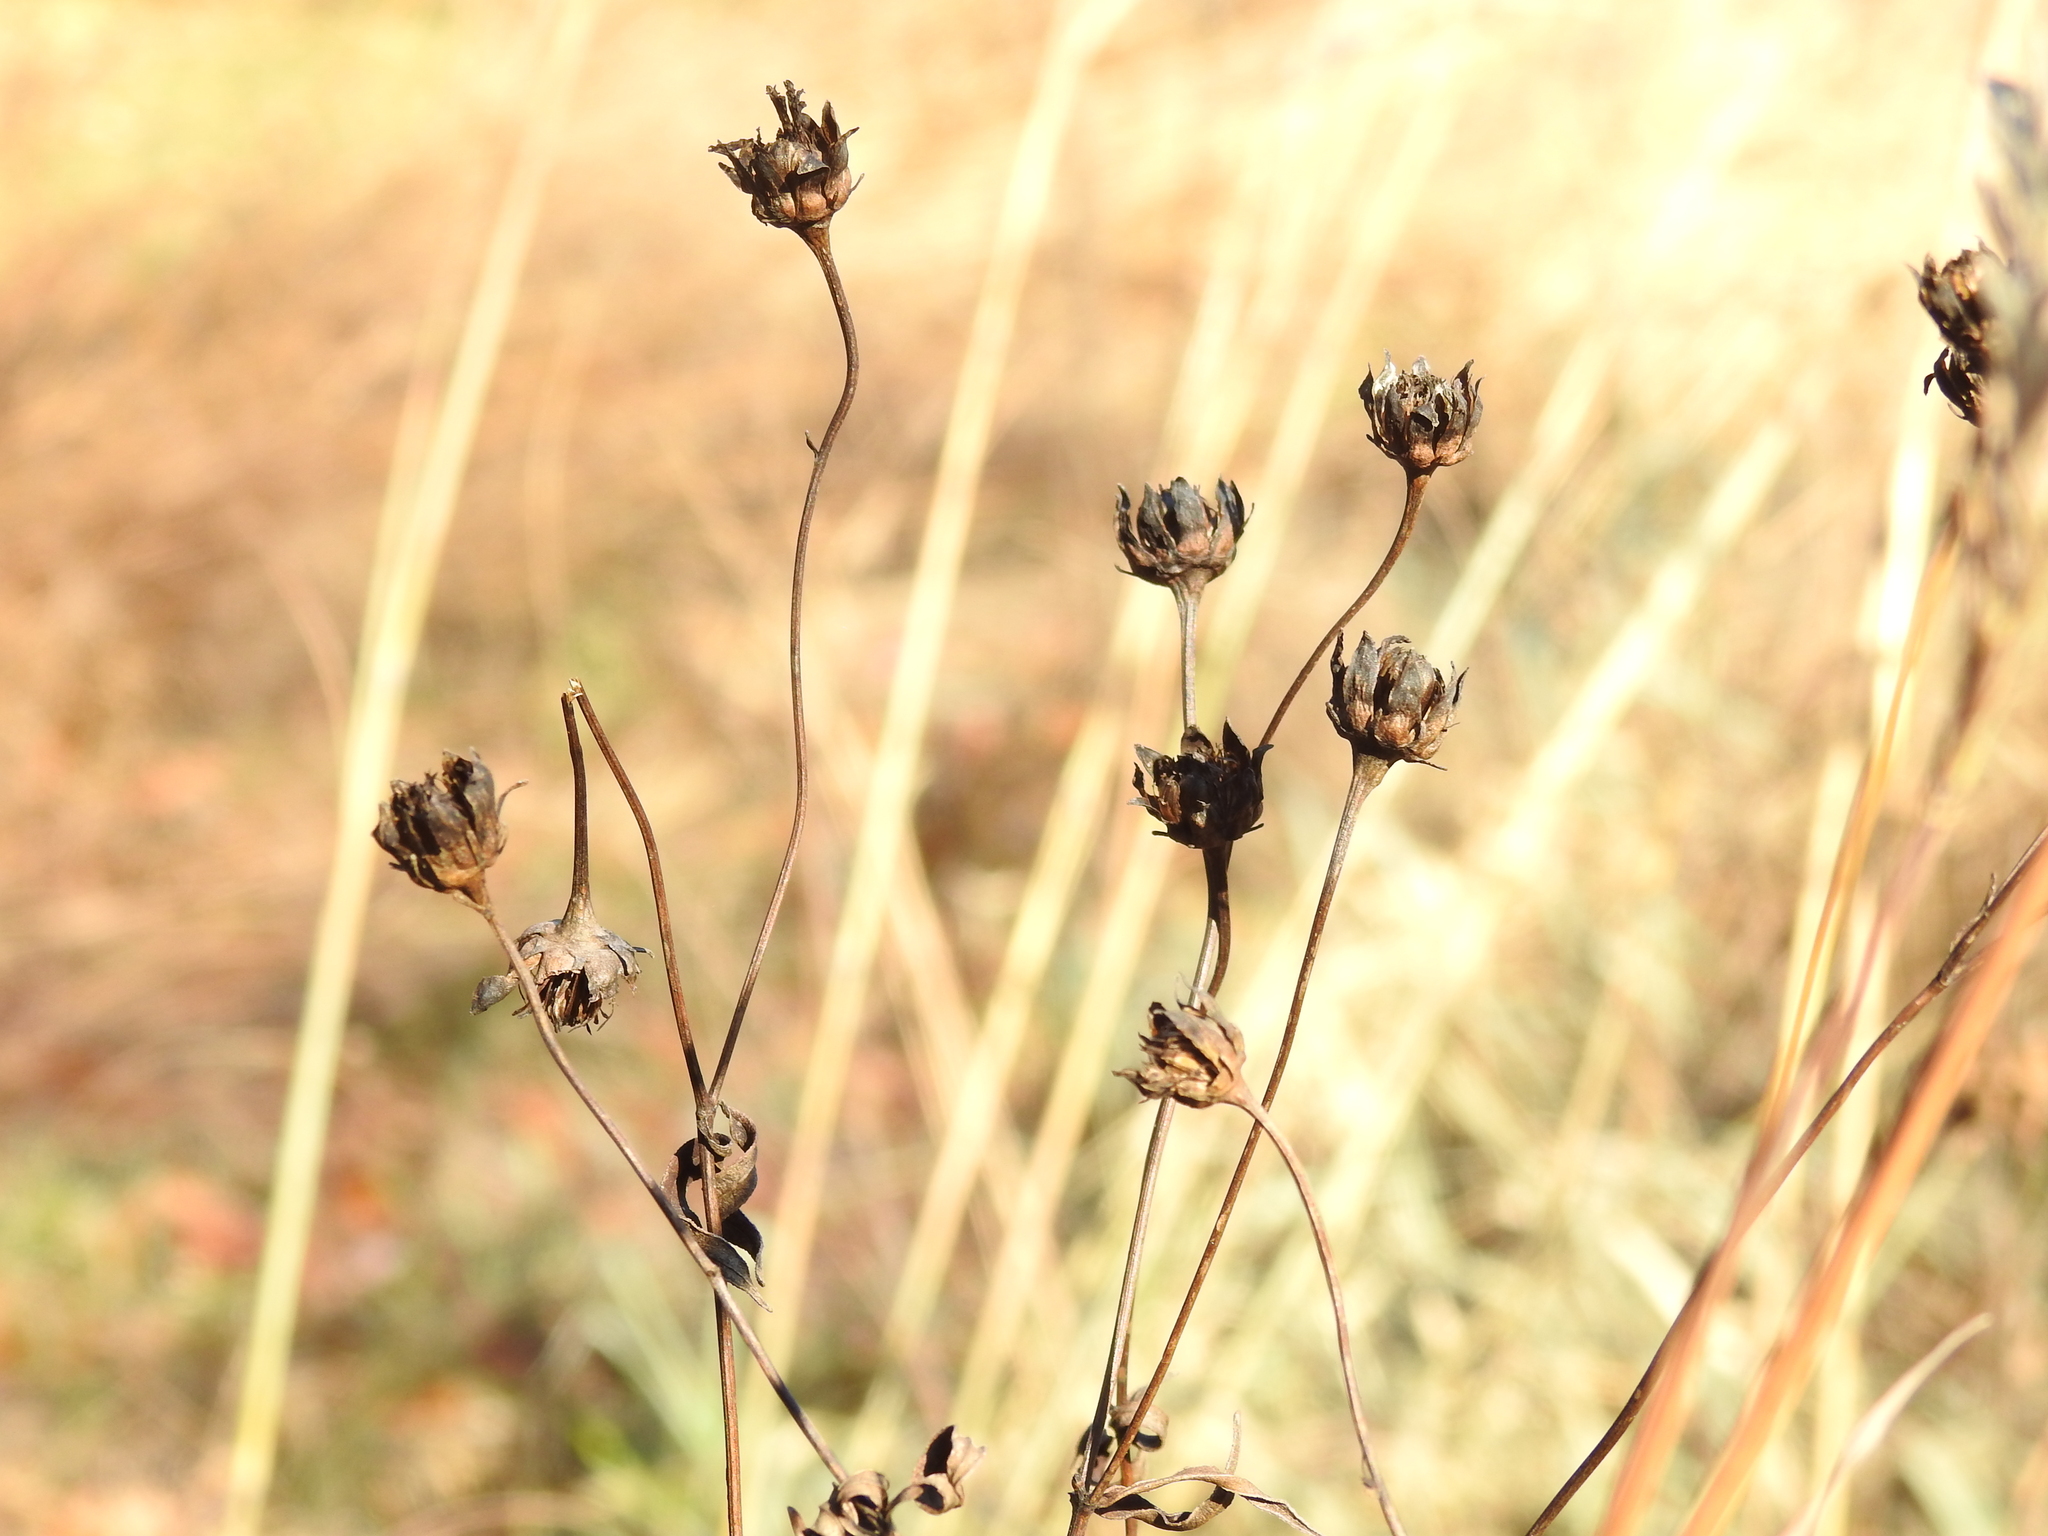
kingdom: Plantae
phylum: Tracheophyta
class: Magnoliopsida
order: Asterales
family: Asteraceae
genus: Coreopsis
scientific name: Coreopsis tripteris
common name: Tall coreopsis
